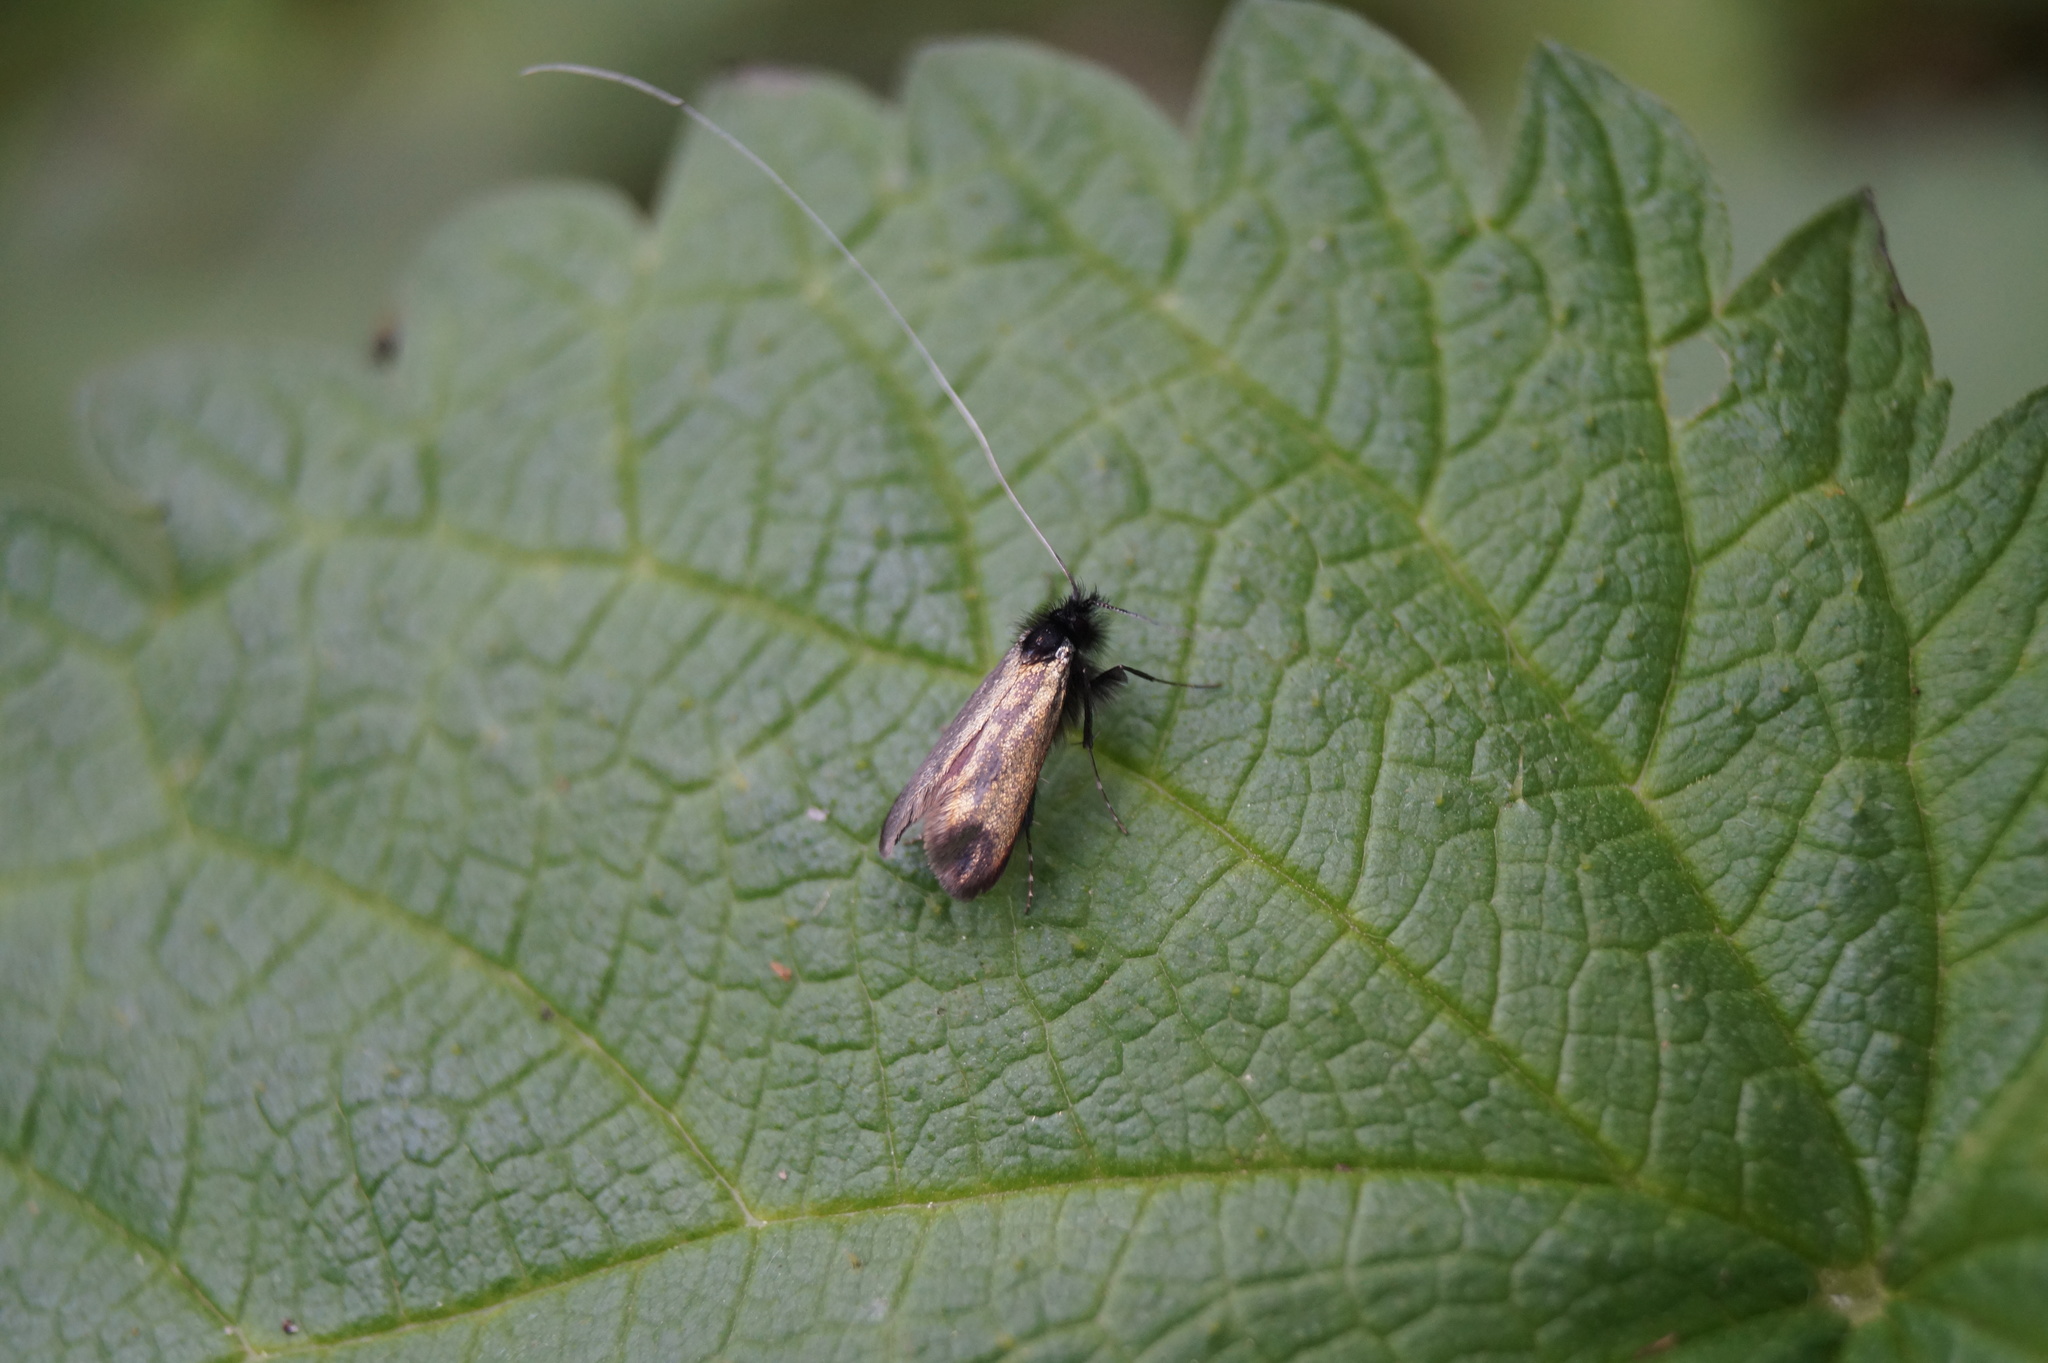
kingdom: Animalia
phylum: Arthropoda
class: Insecta
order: Lepidoptera
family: Adelidae
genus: Adela
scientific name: Adela viridella
